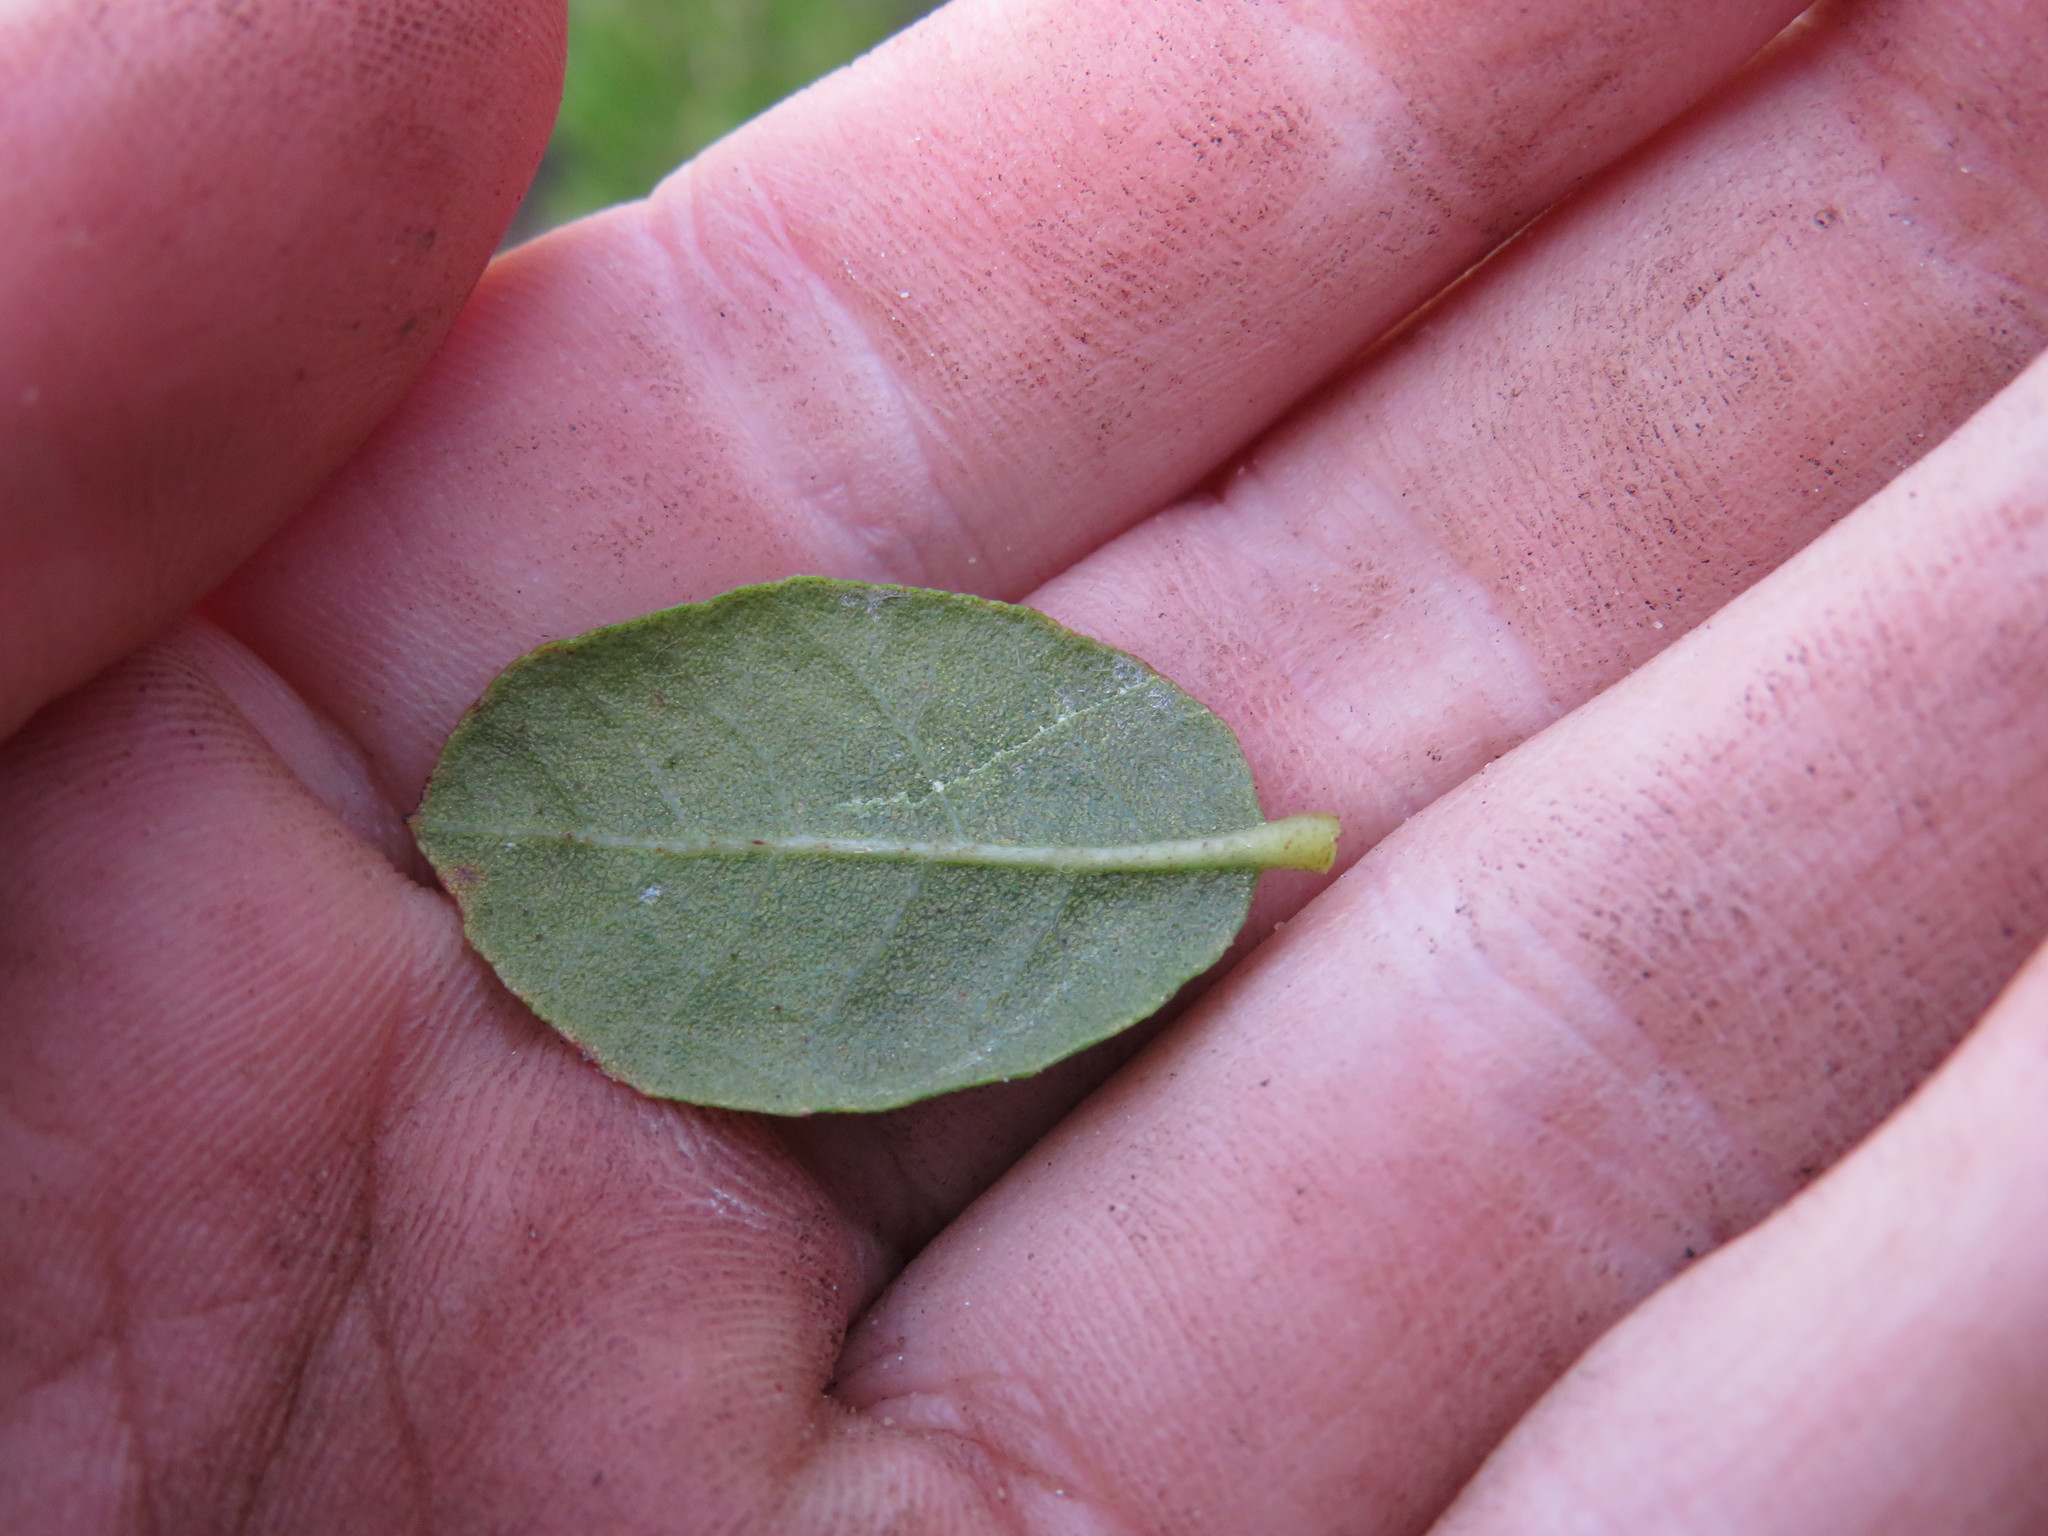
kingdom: Plantae
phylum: Tracheophyta
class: Magnoliopsida
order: Fagales
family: Myricaceae
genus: Morella
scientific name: Morella kraussiana
